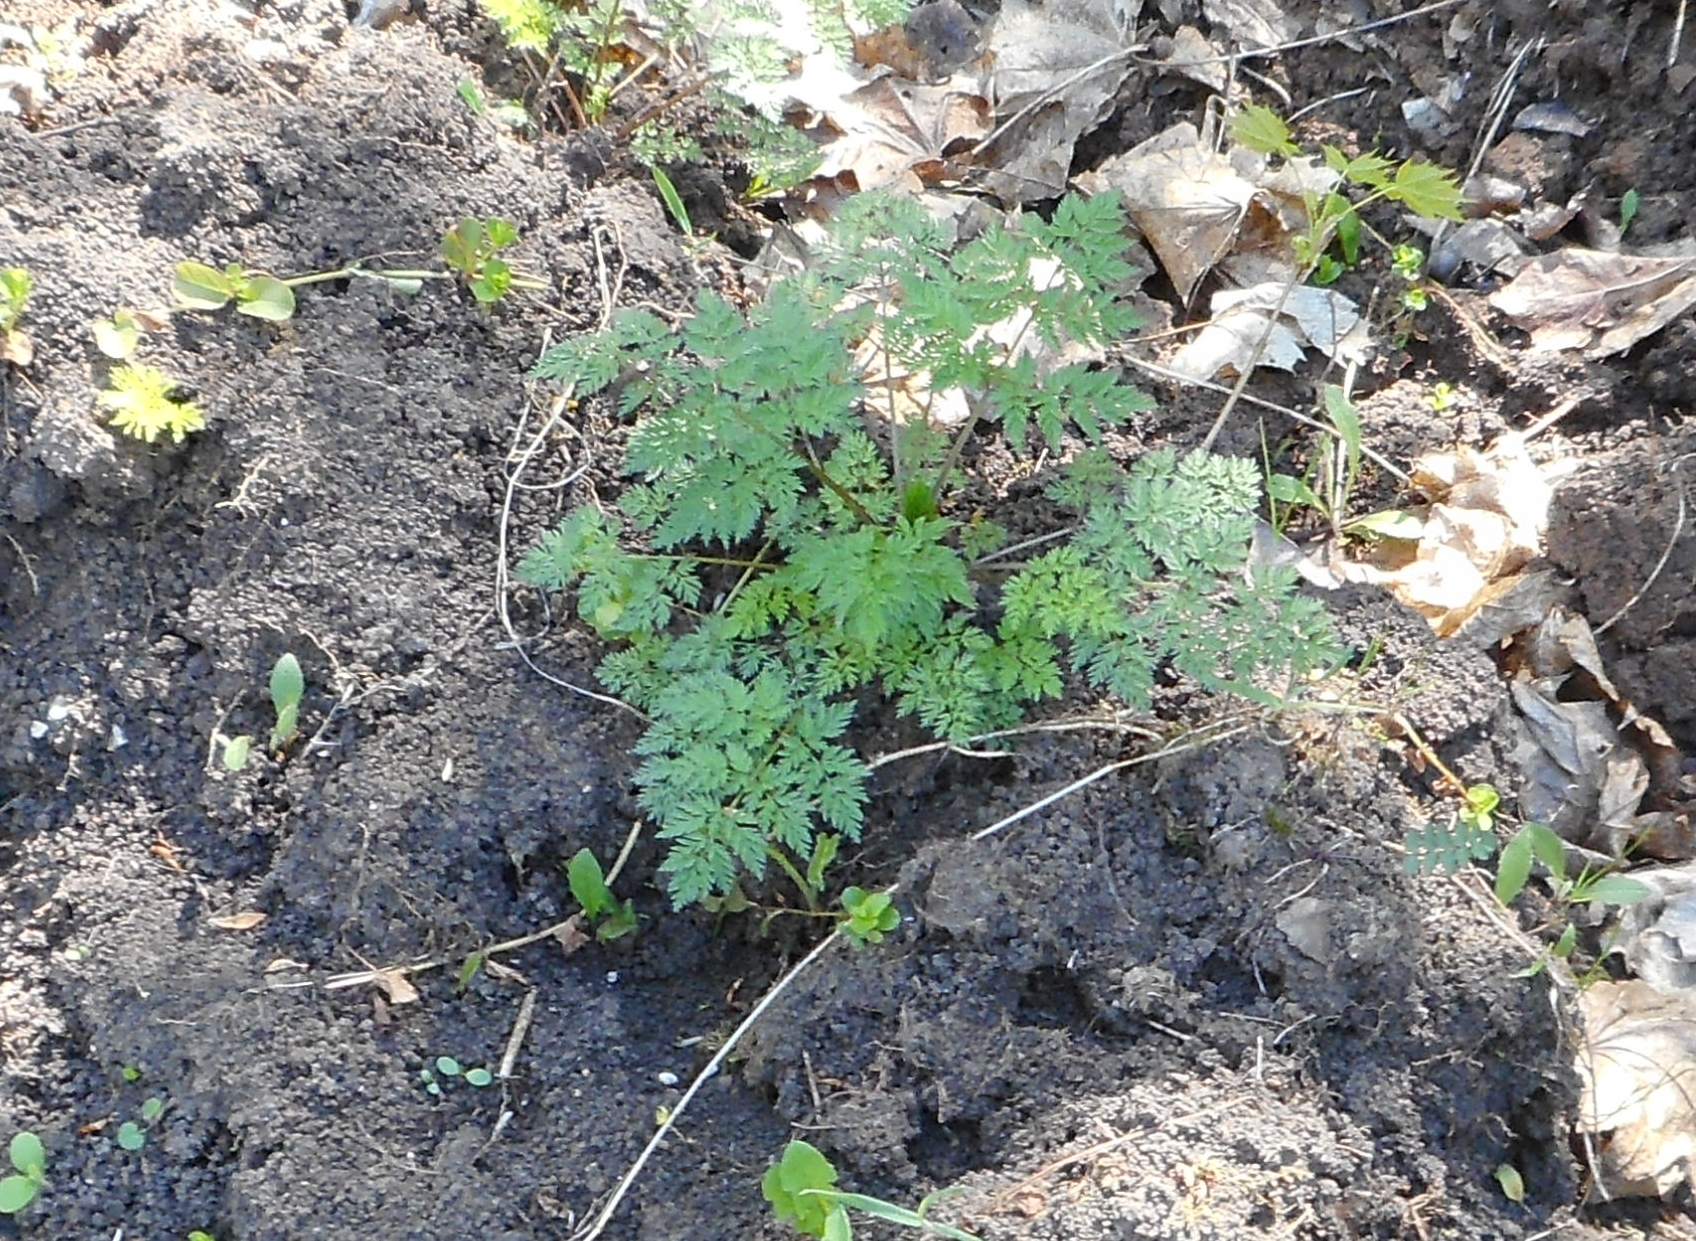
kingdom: Plantae
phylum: Tracheophyta
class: Magnoliopsida
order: Apiales
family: Apiaceae
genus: Anthriscus
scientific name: Anthriscus sylvestris
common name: Cow parsley
